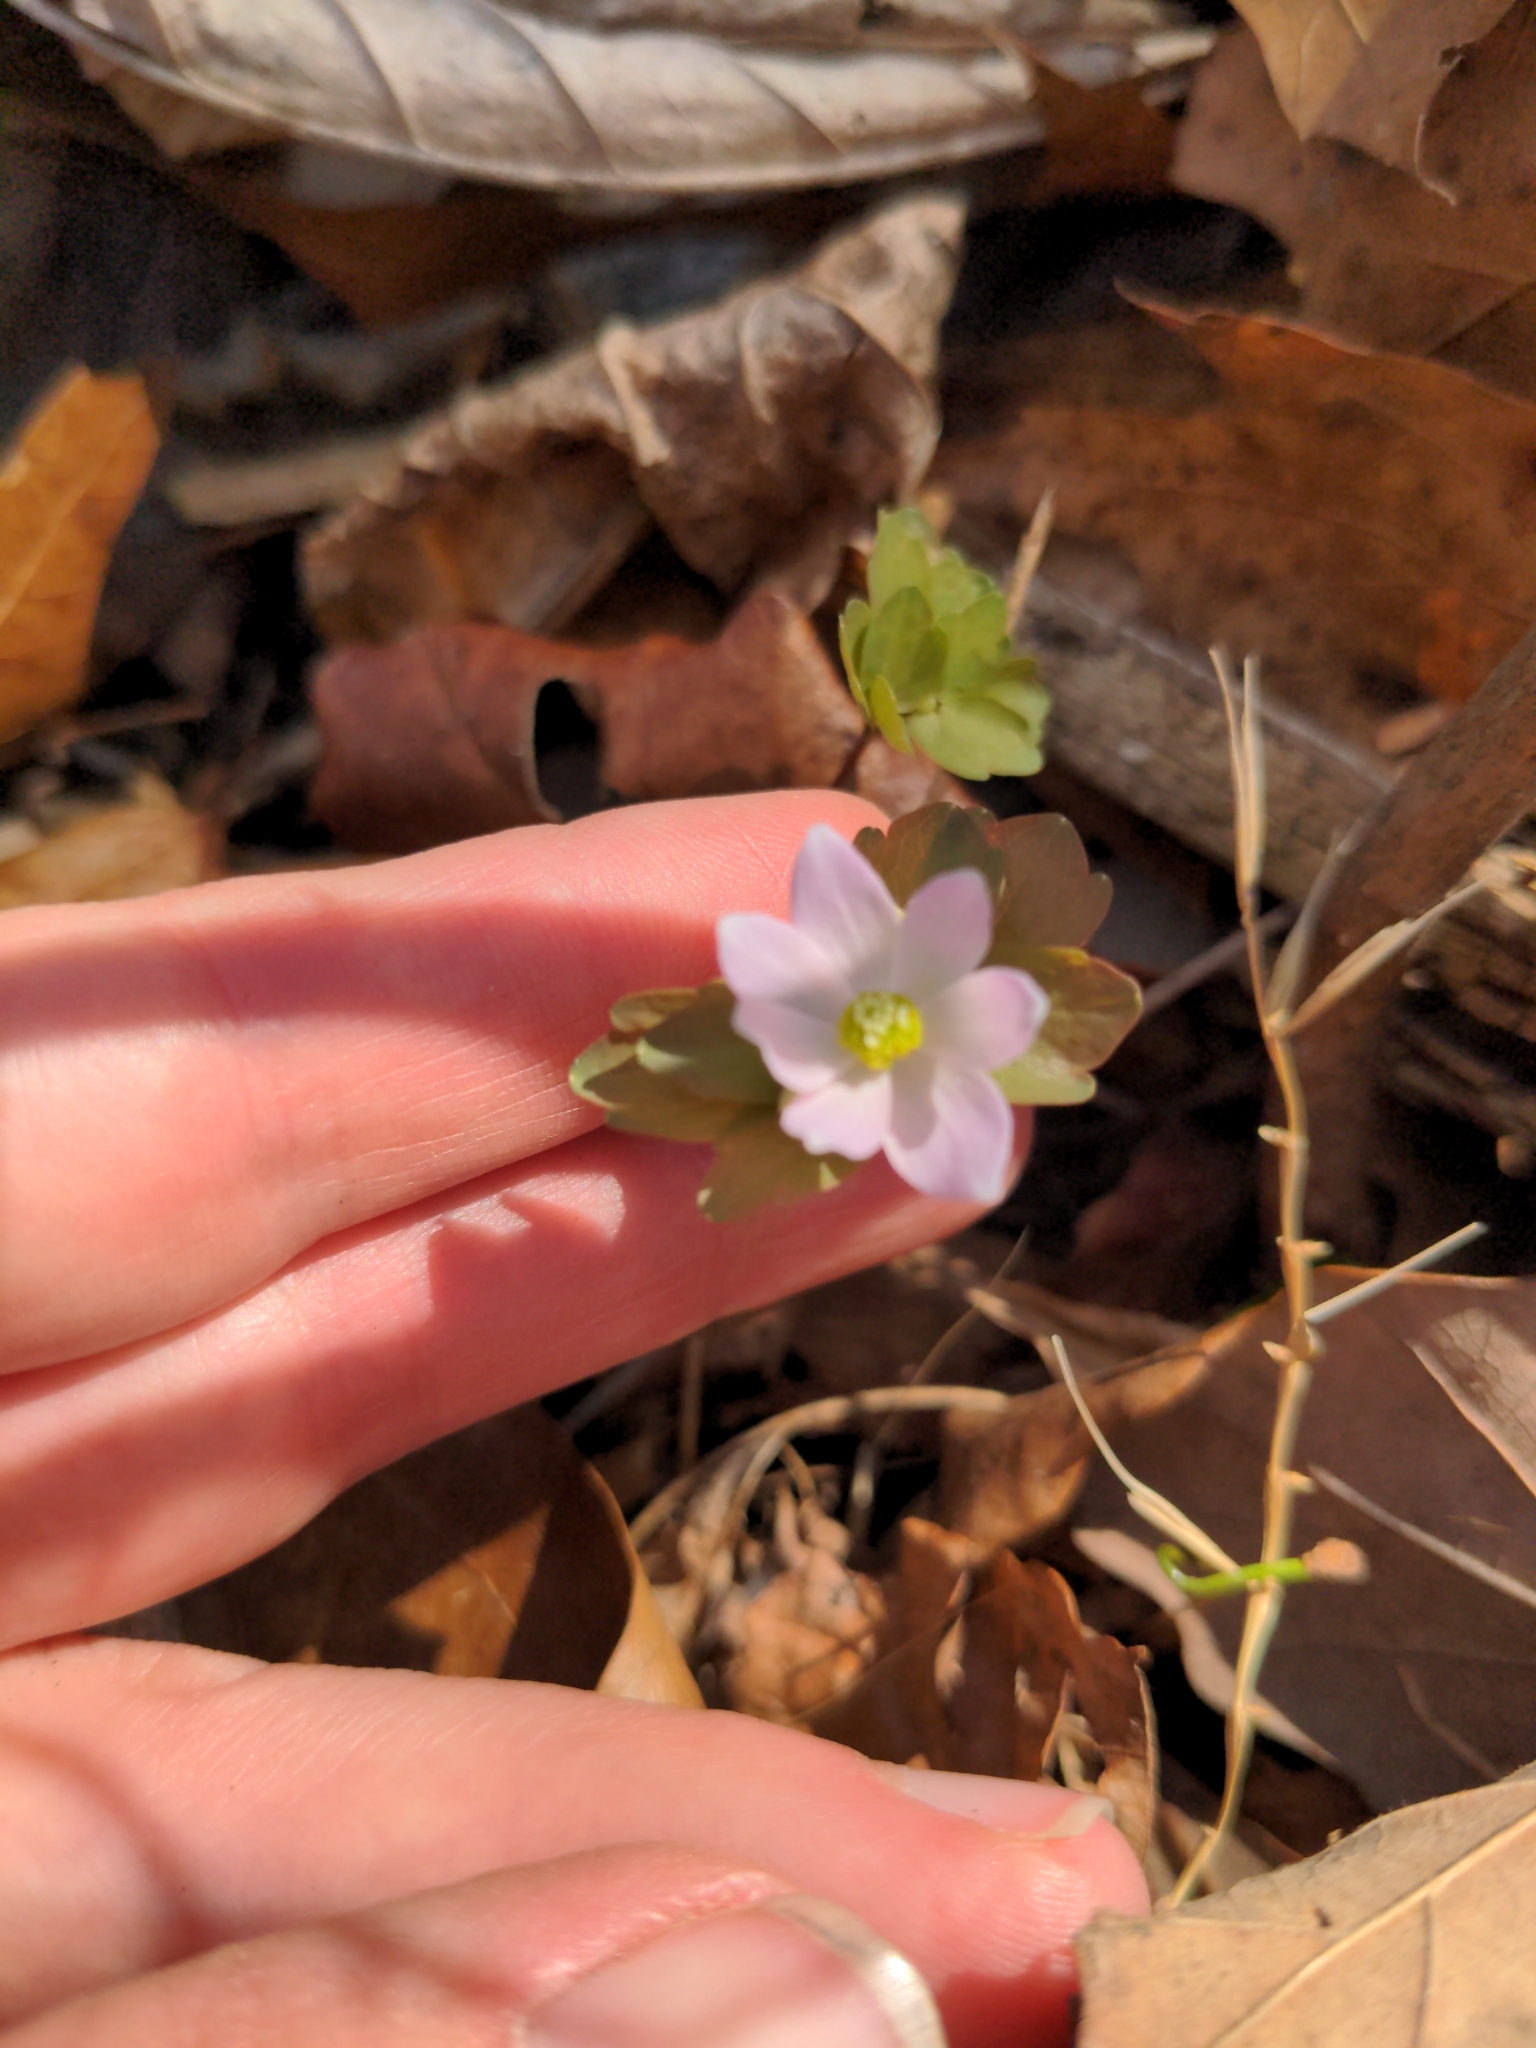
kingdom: Plantae
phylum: Tracheophyta
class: Magnoliopsida
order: Ranunculales
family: Ranunculaceae
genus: Thalictrum
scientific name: Thalictrum thalictroides
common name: Rue-anemone
